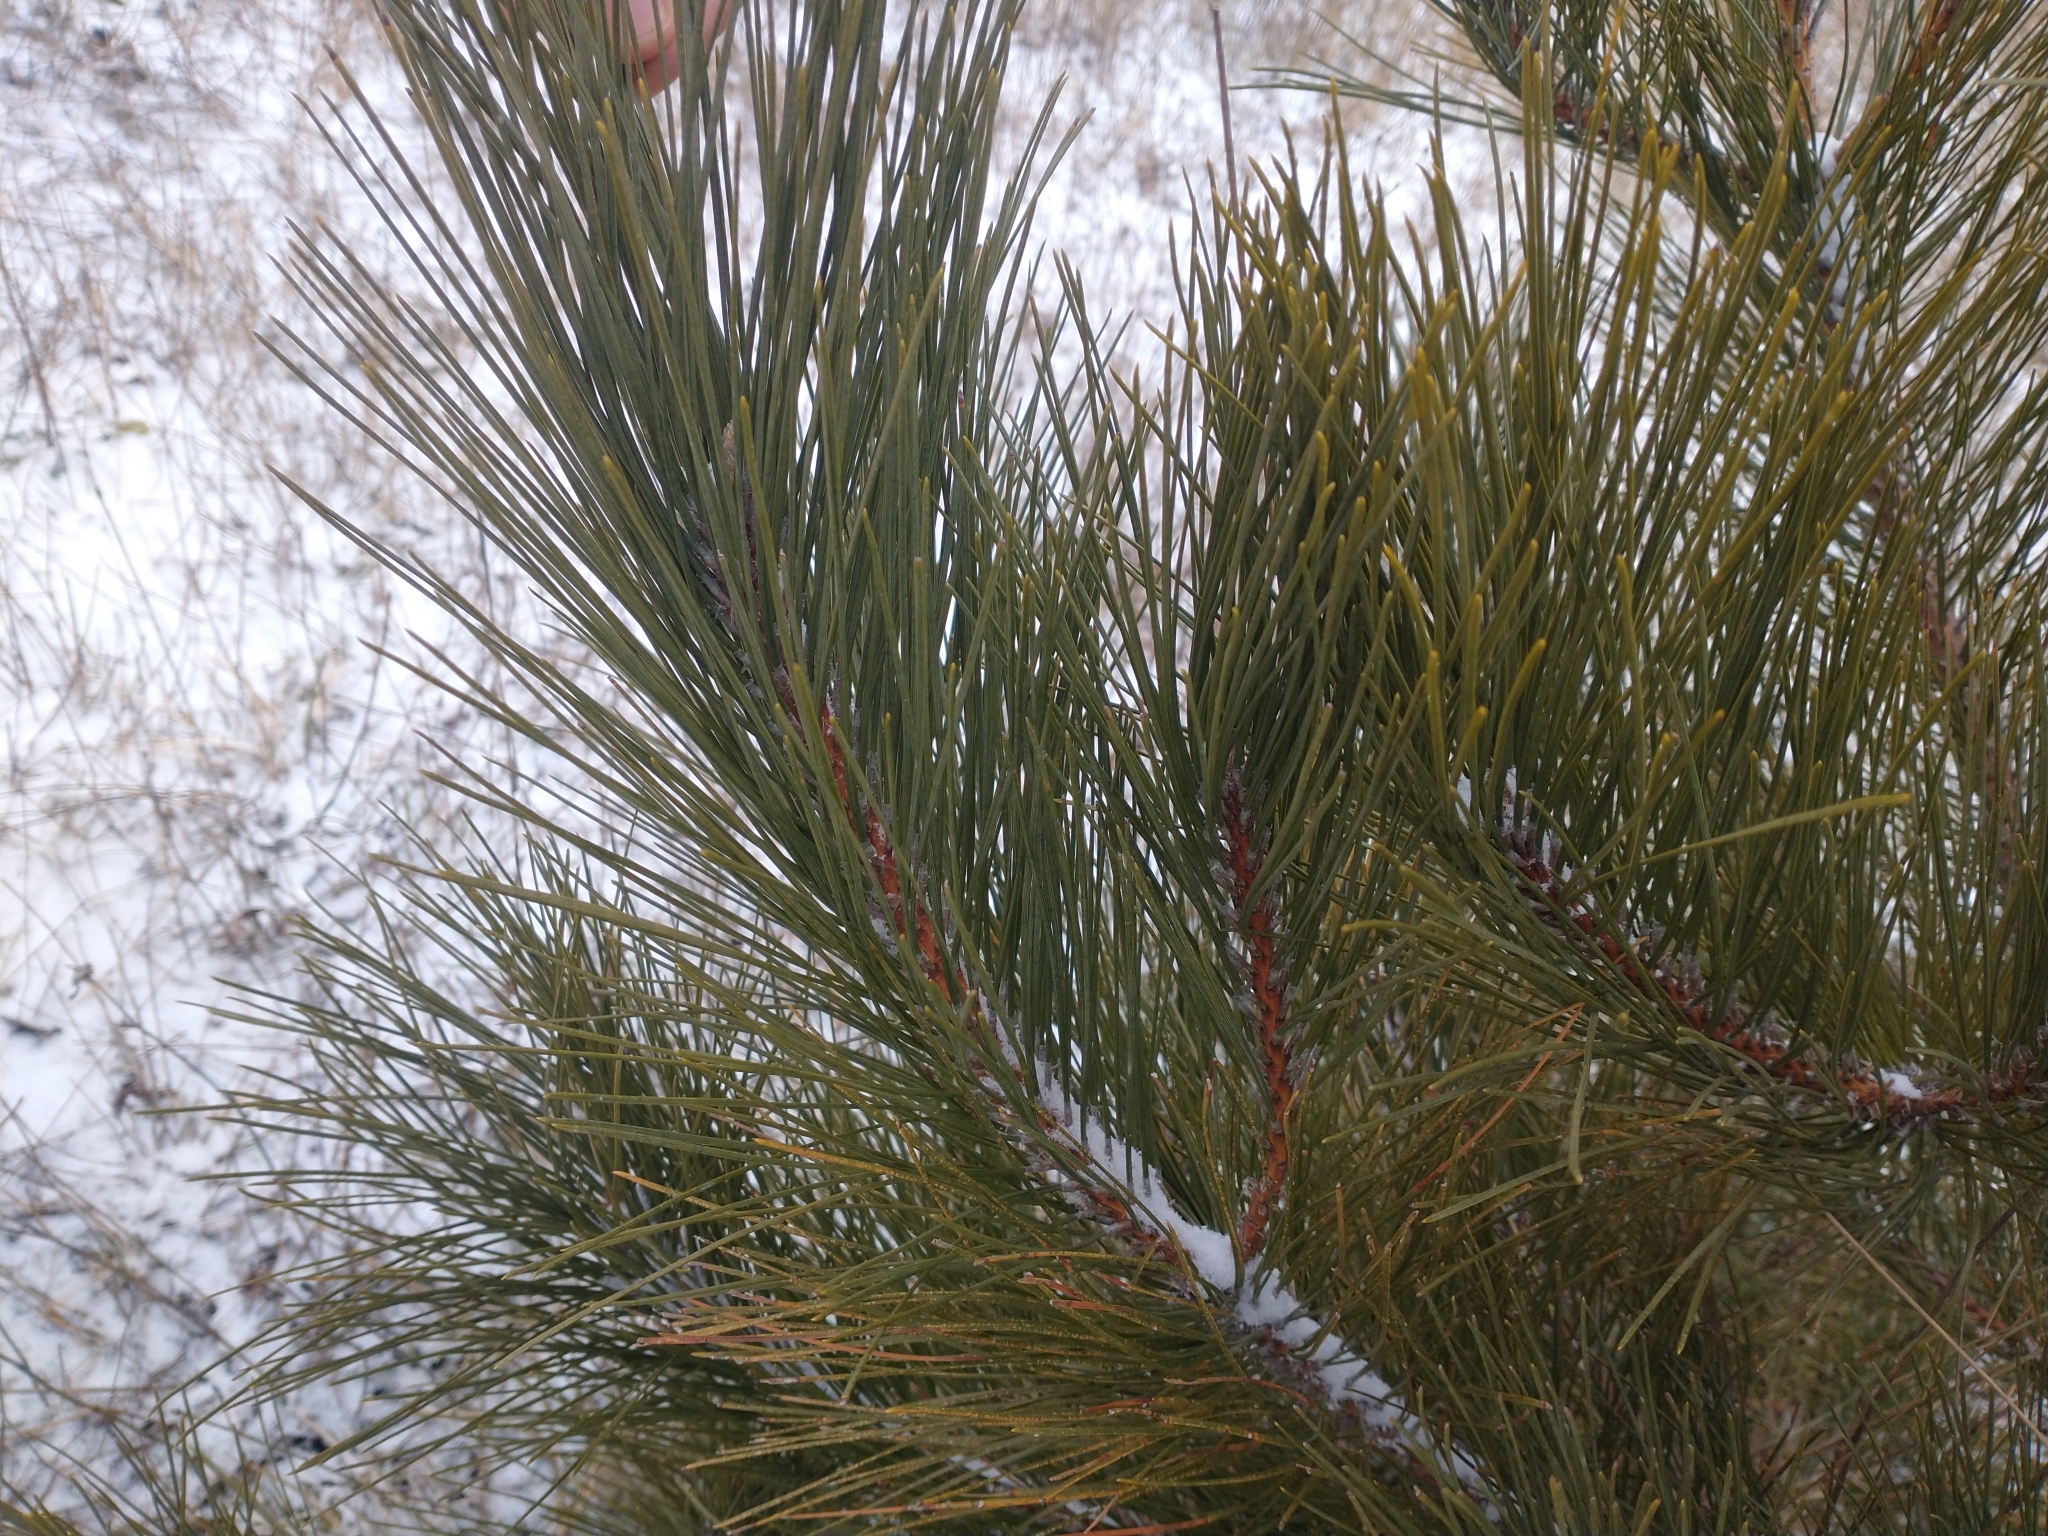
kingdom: Plantae
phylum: Tracheophyta
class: Pinopsida
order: Pinales
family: Pinaceae
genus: Pinus
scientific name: Pinus resinosa
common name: Norway pine
